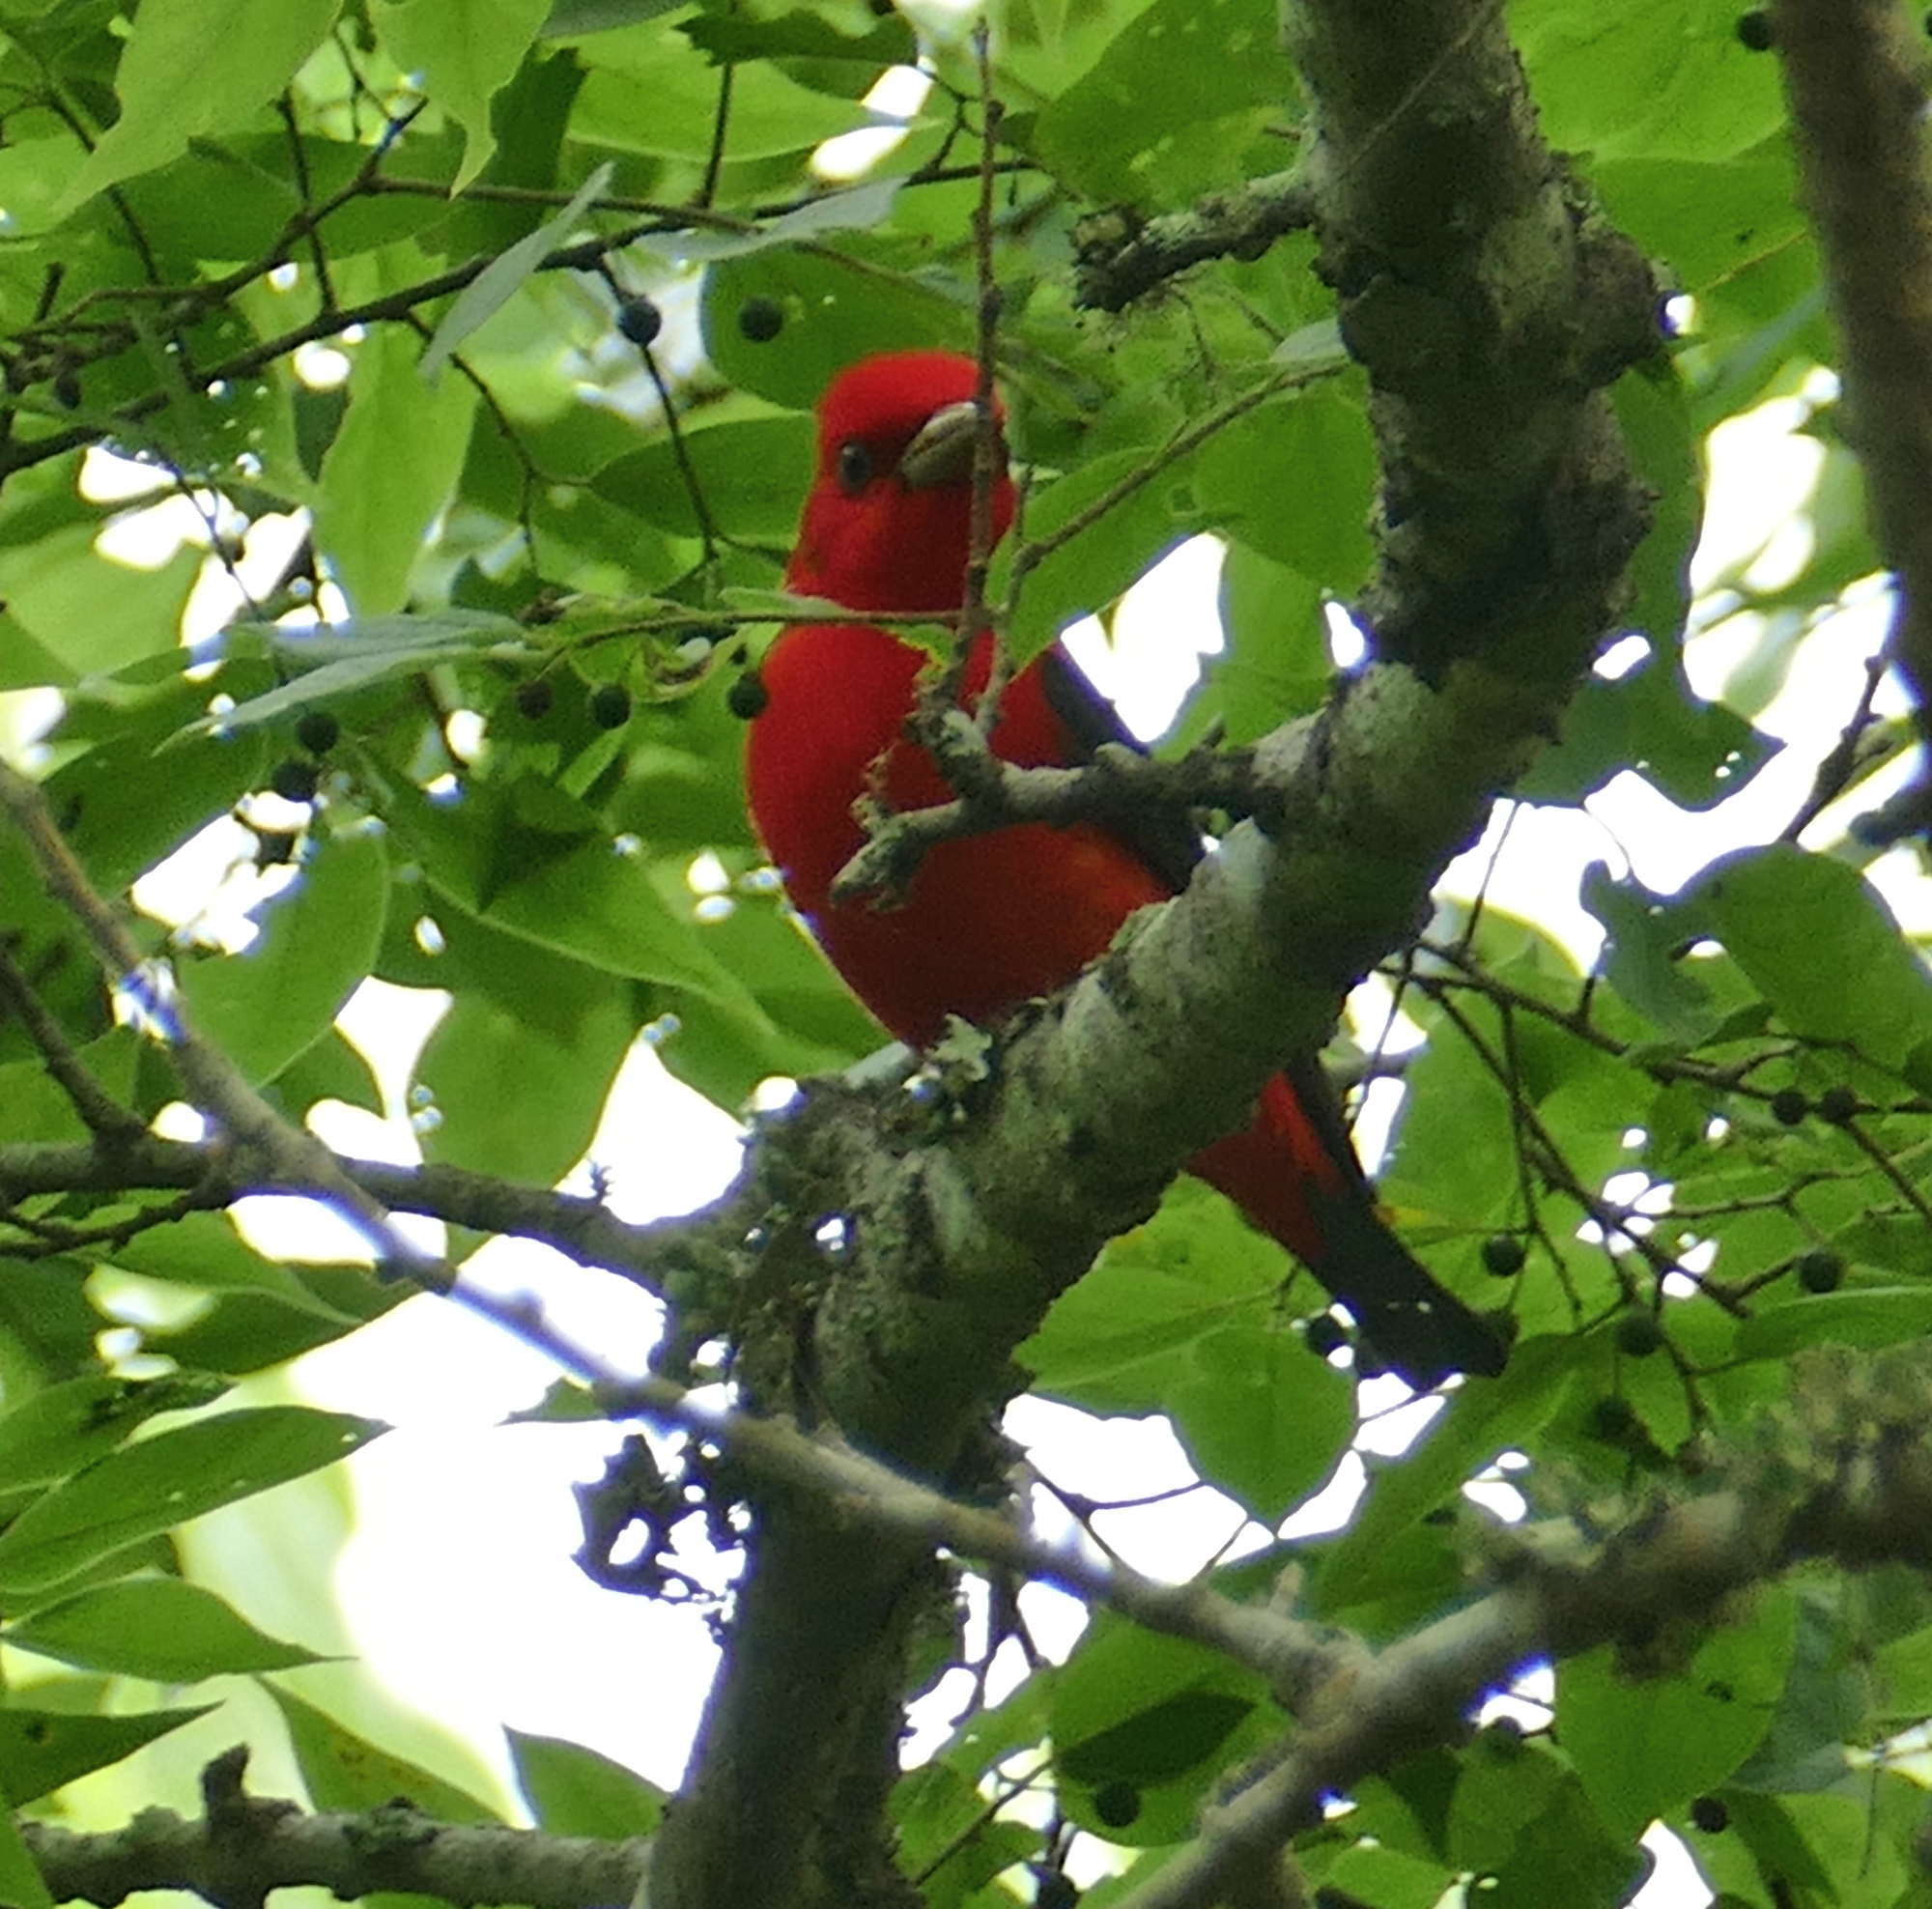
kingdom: Animalia
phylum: Chordata
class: Aves
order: Passeriformes
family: Cardinalidae
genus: Piranga
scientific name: Piranga olivacea
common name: Scarlet tanager
